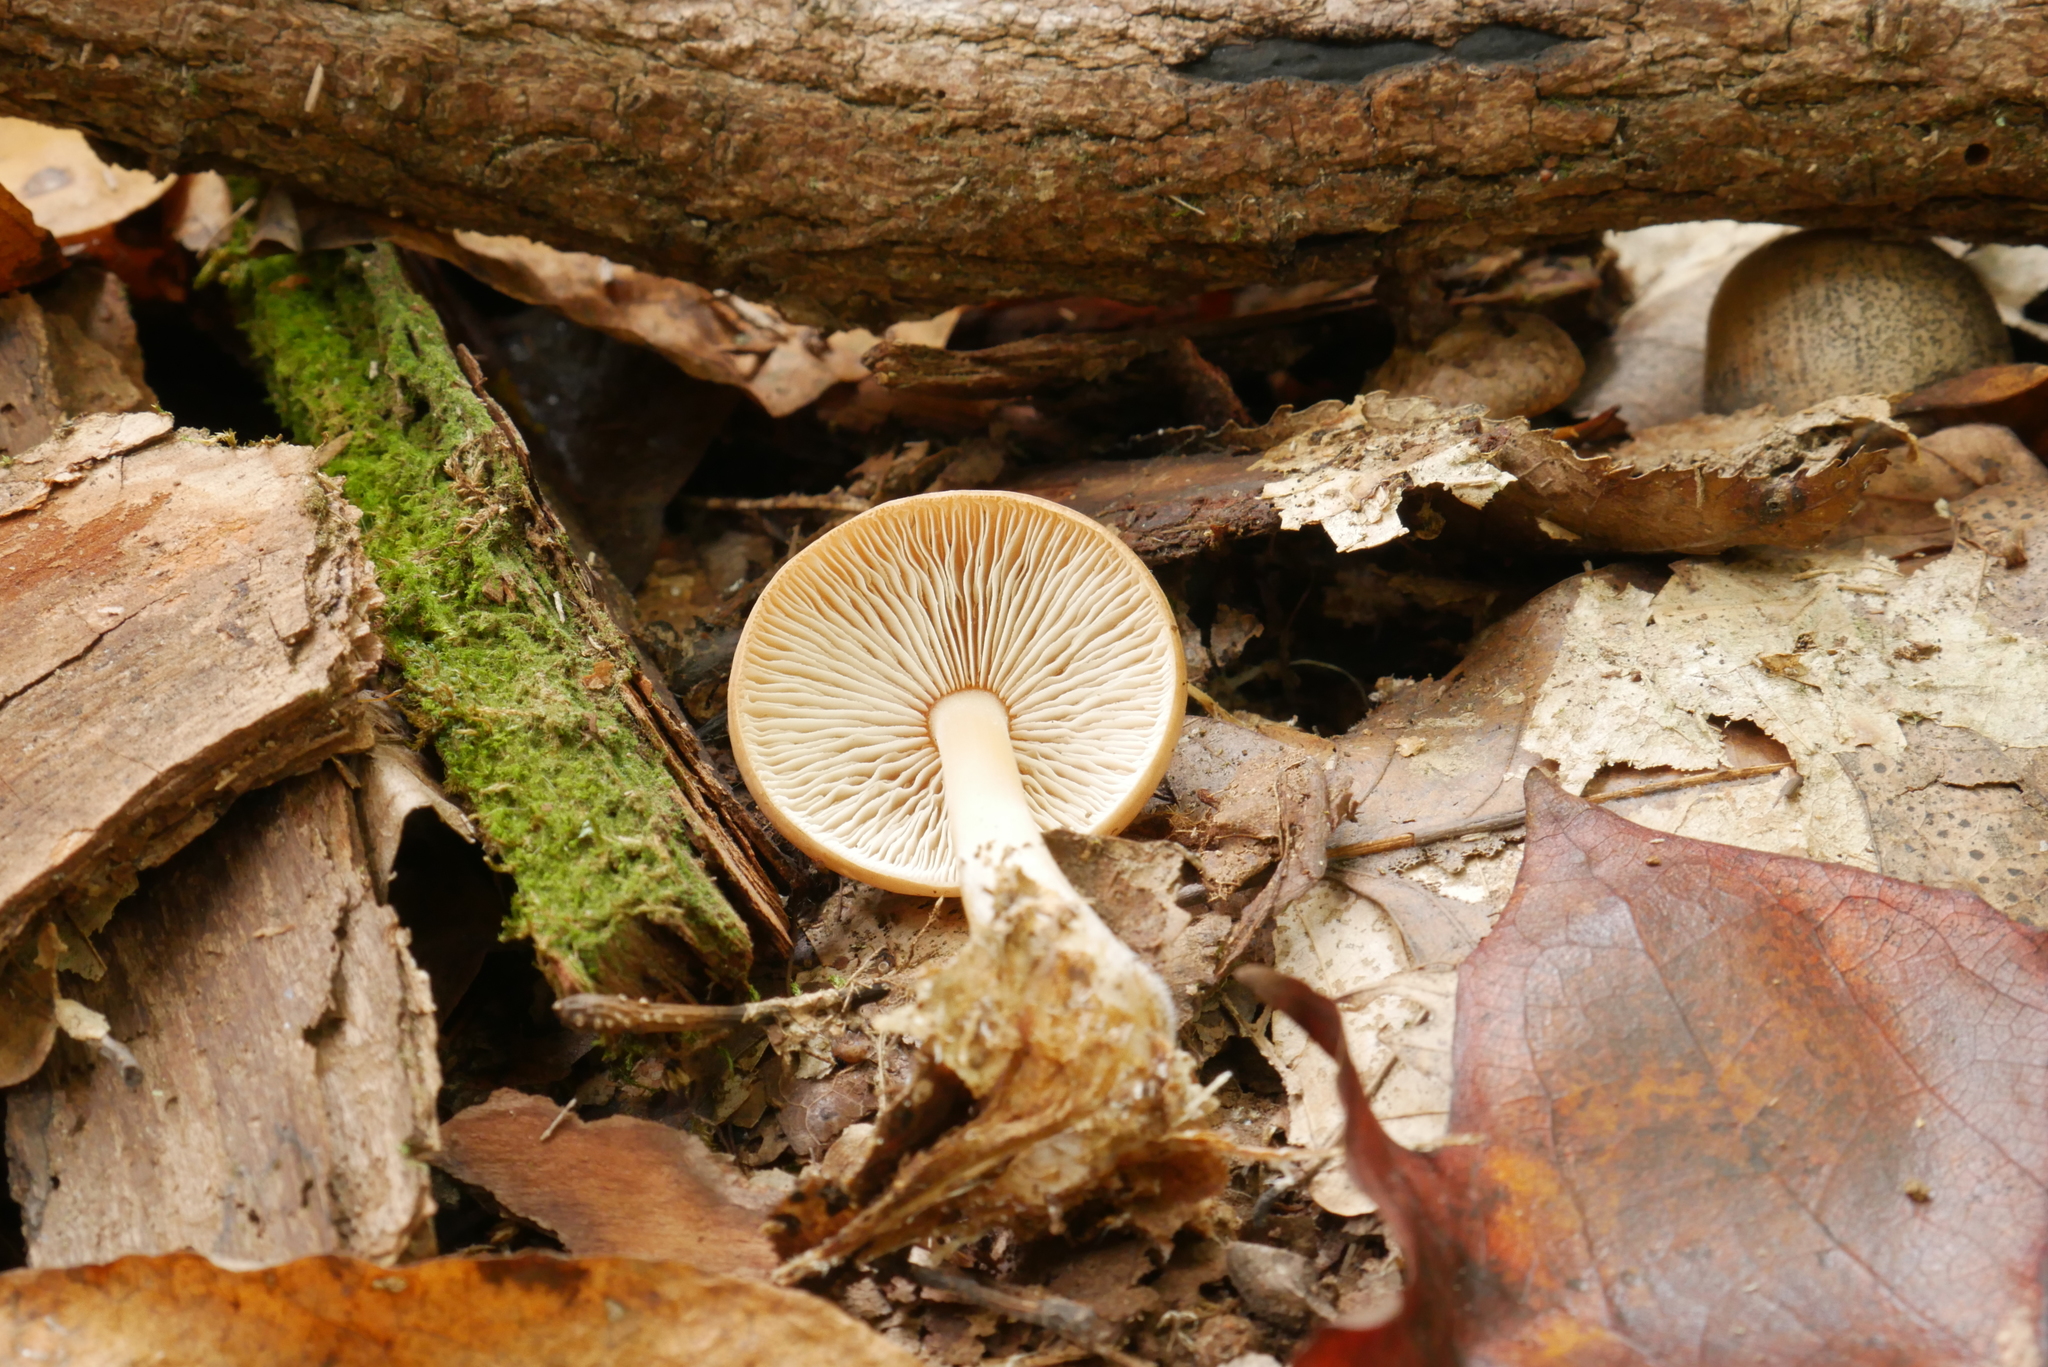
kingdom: Fungi
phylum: Basidiomycota
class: Agaricomycetes
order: Agaricales
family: Omphalotaceae
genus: Rhodocollybia
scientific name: Rhodocollybia butyracea
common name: Butter cap
